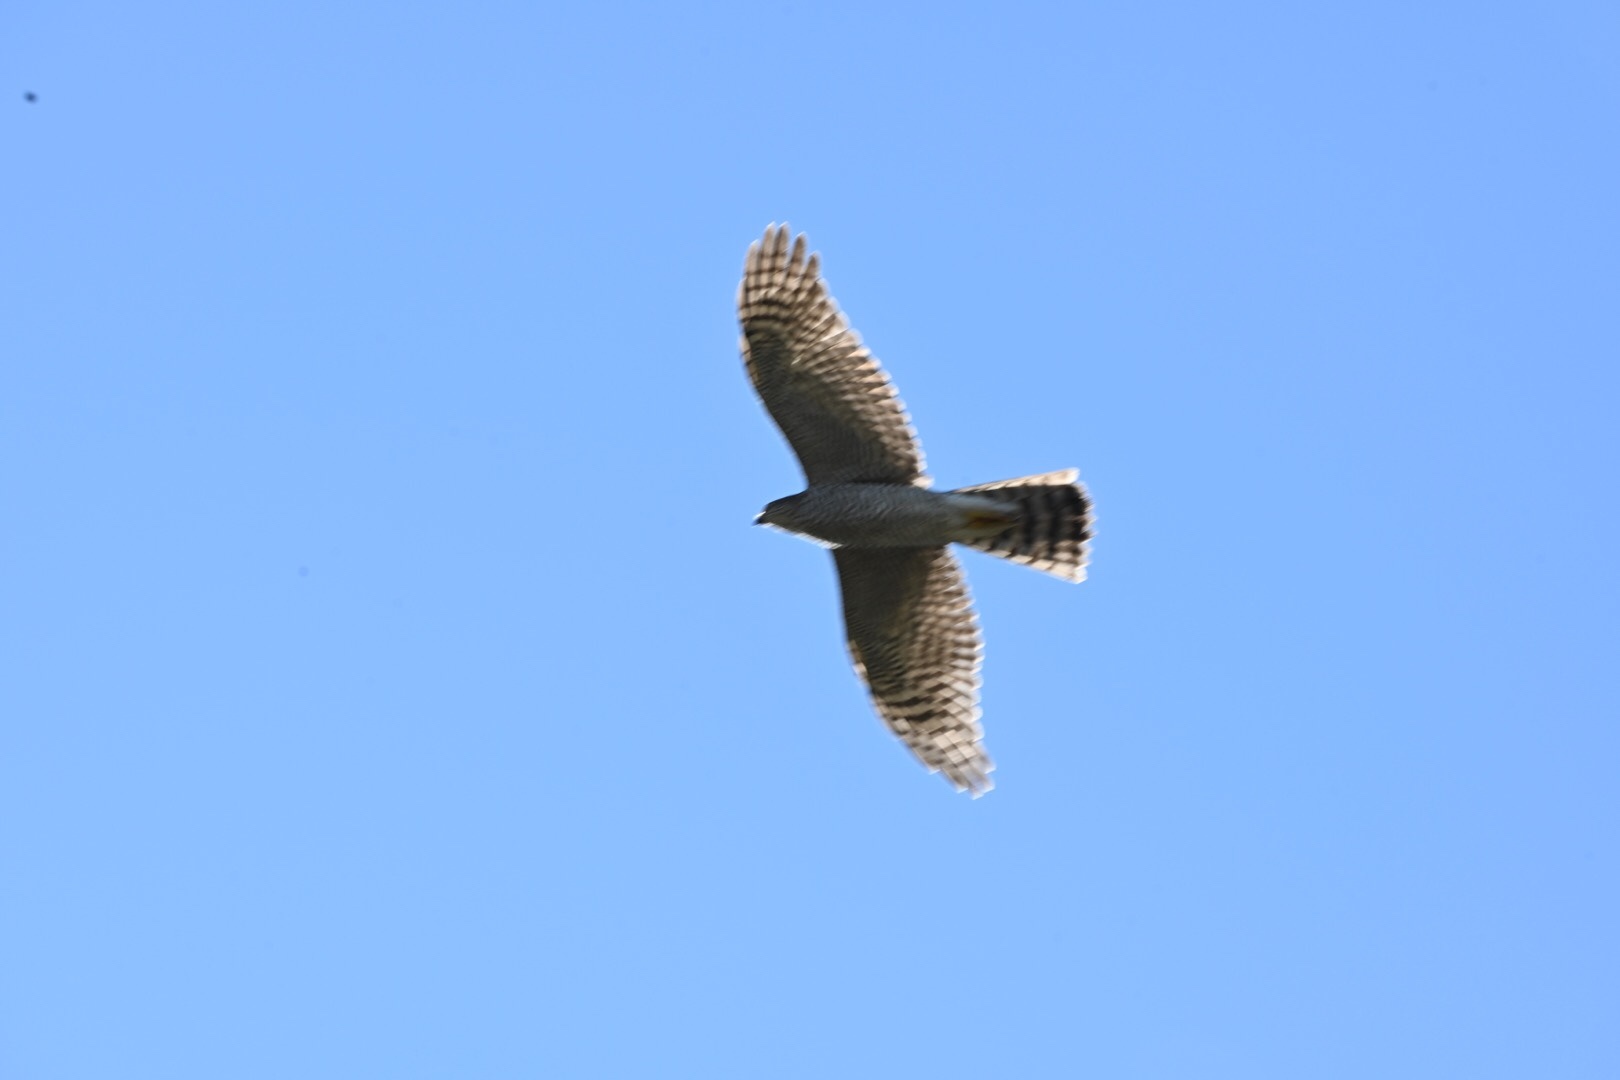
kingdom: Animalia
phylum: Chordata
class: Aves
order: Accipitriformes
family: Accipitridae
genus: Accipiter
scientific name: Accipiter nisus
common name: Eurasian sparrowhawk
